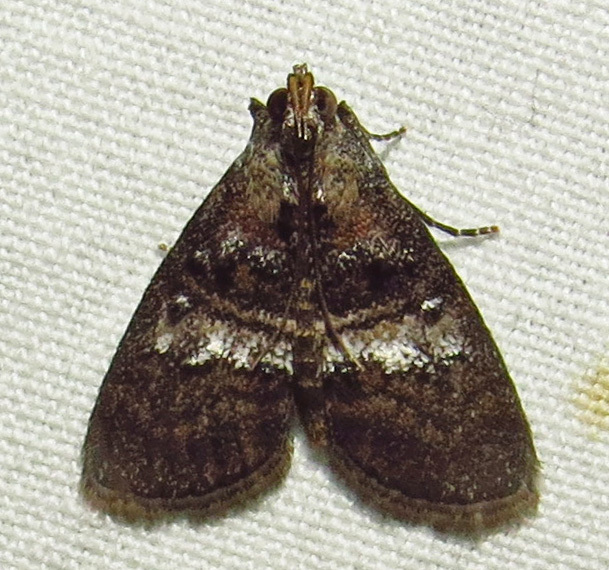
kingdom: Animalia
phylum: Arthropoda
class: Insecta
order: Lepidoptera
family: Pyralidae
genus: Pococera
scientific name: Pococera asperatella
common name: Maple webworm moth
